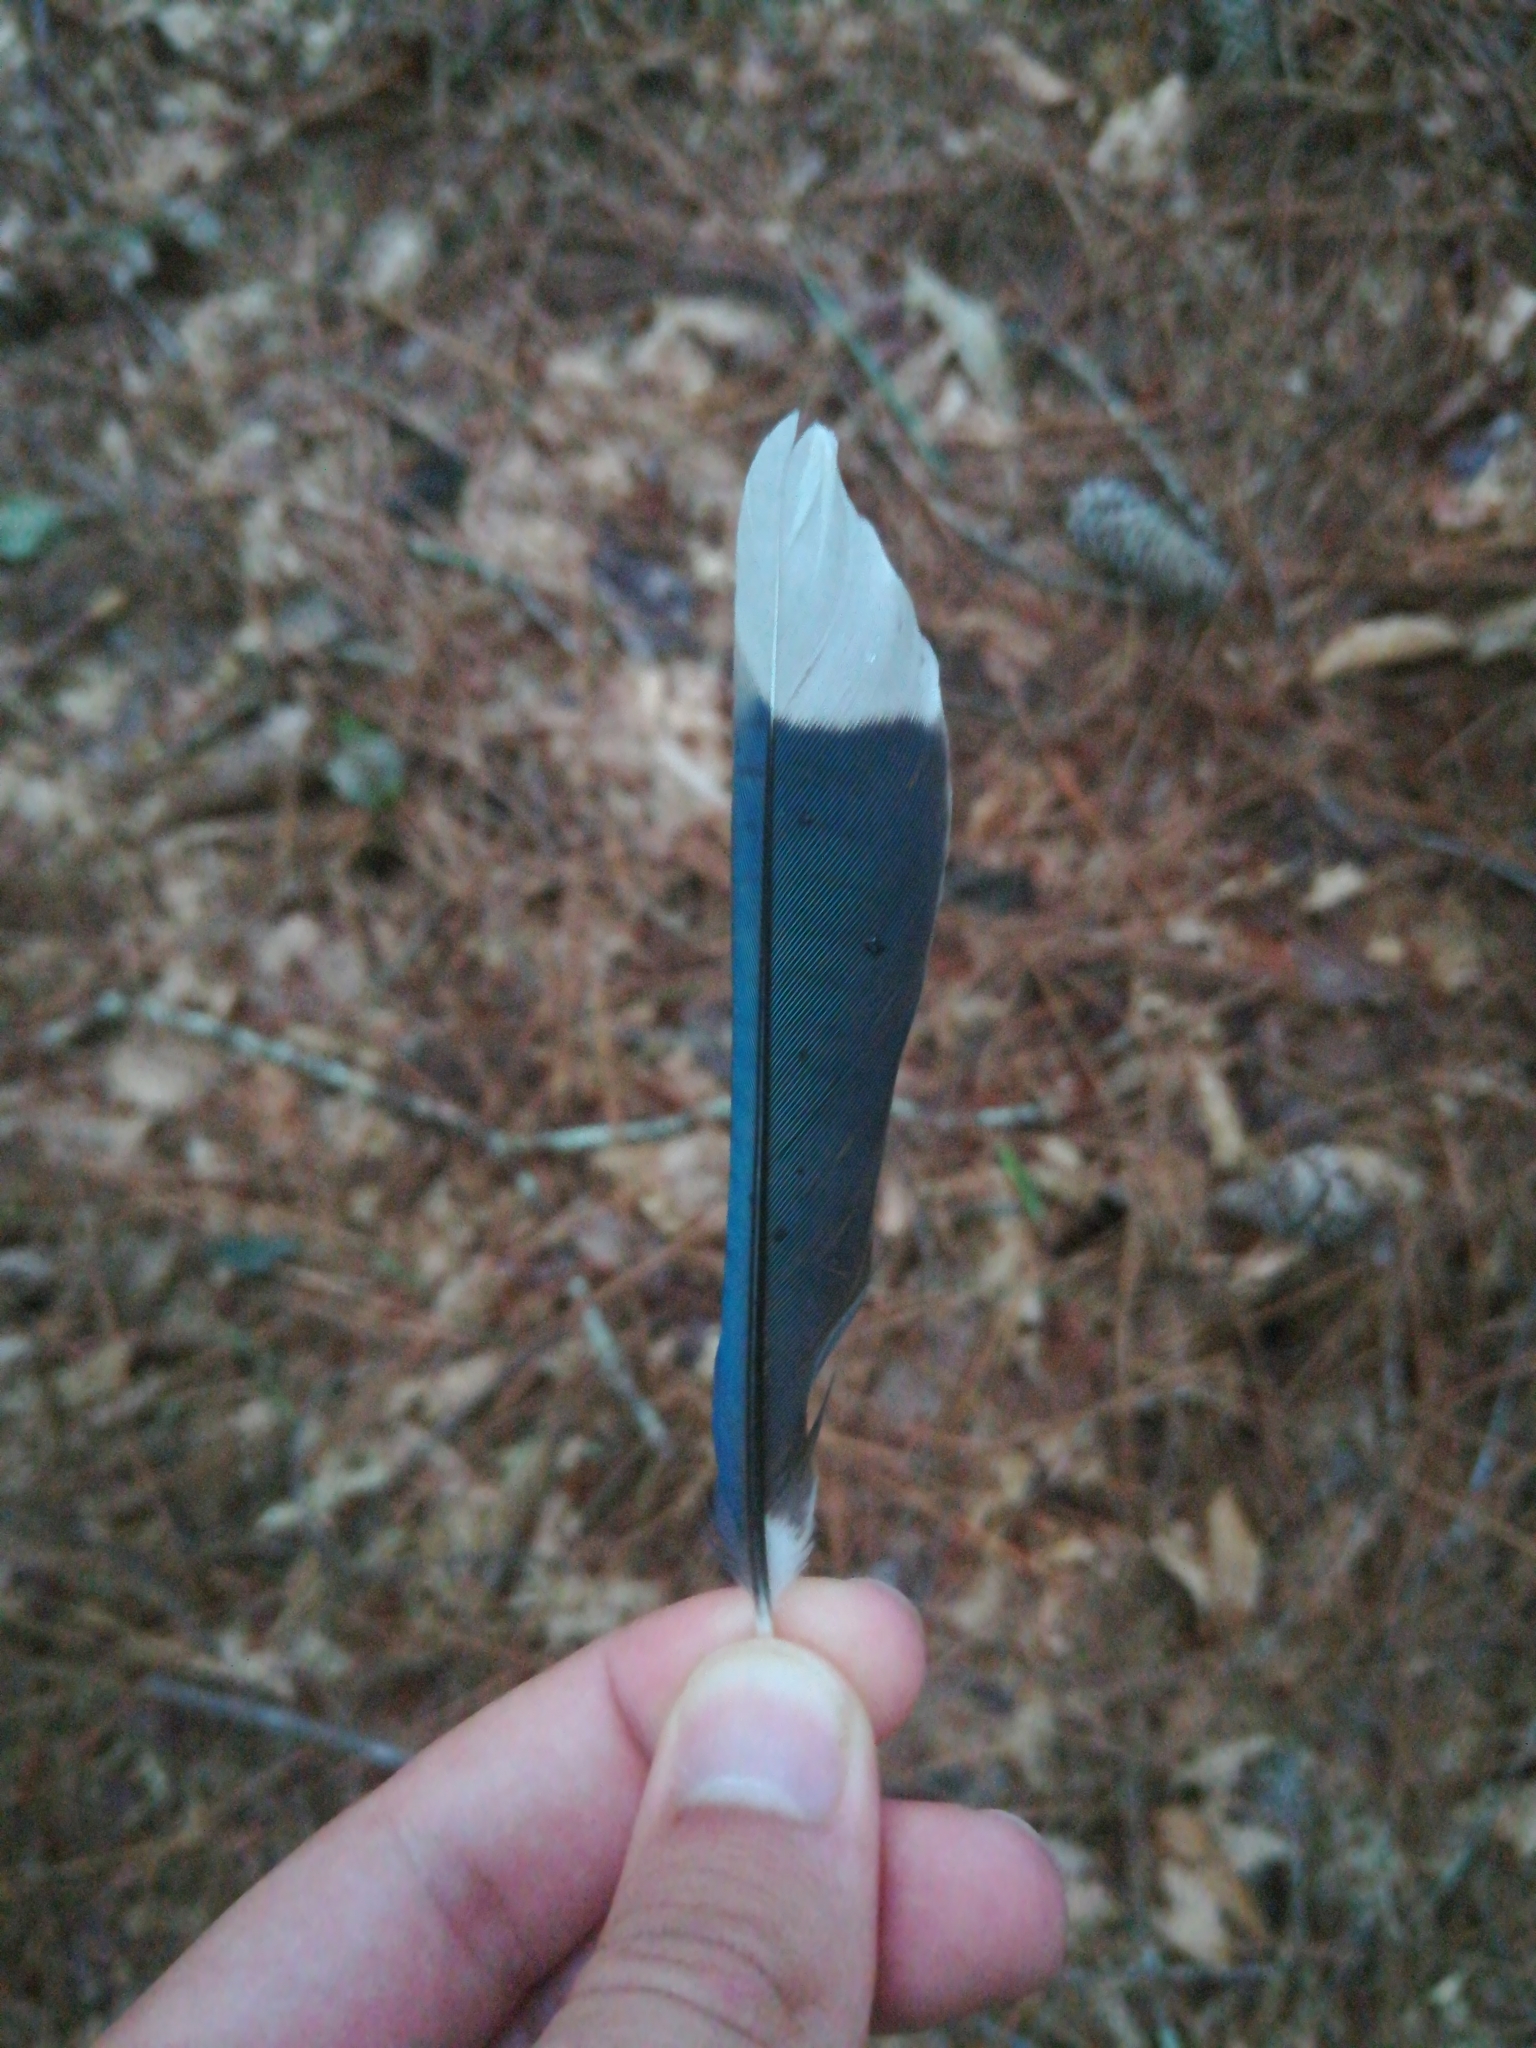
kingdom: Animalia
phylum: Chordata
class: Aves
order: Passeriformes
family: Corvidae
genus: Cyanocitta
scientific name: Cyanocitta cristata
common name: Blue jay
